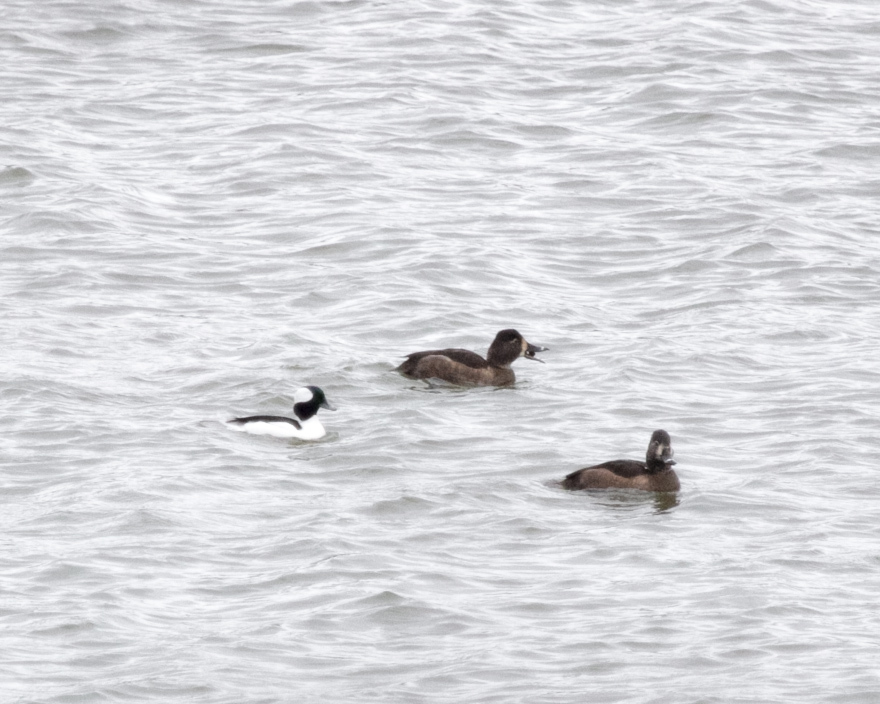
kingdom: Animalia
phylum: Chordata
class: Aves
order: Anseriformes
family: Anatidae
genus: Bucephala
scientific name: Bucephala albeola
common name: Bufflehead
